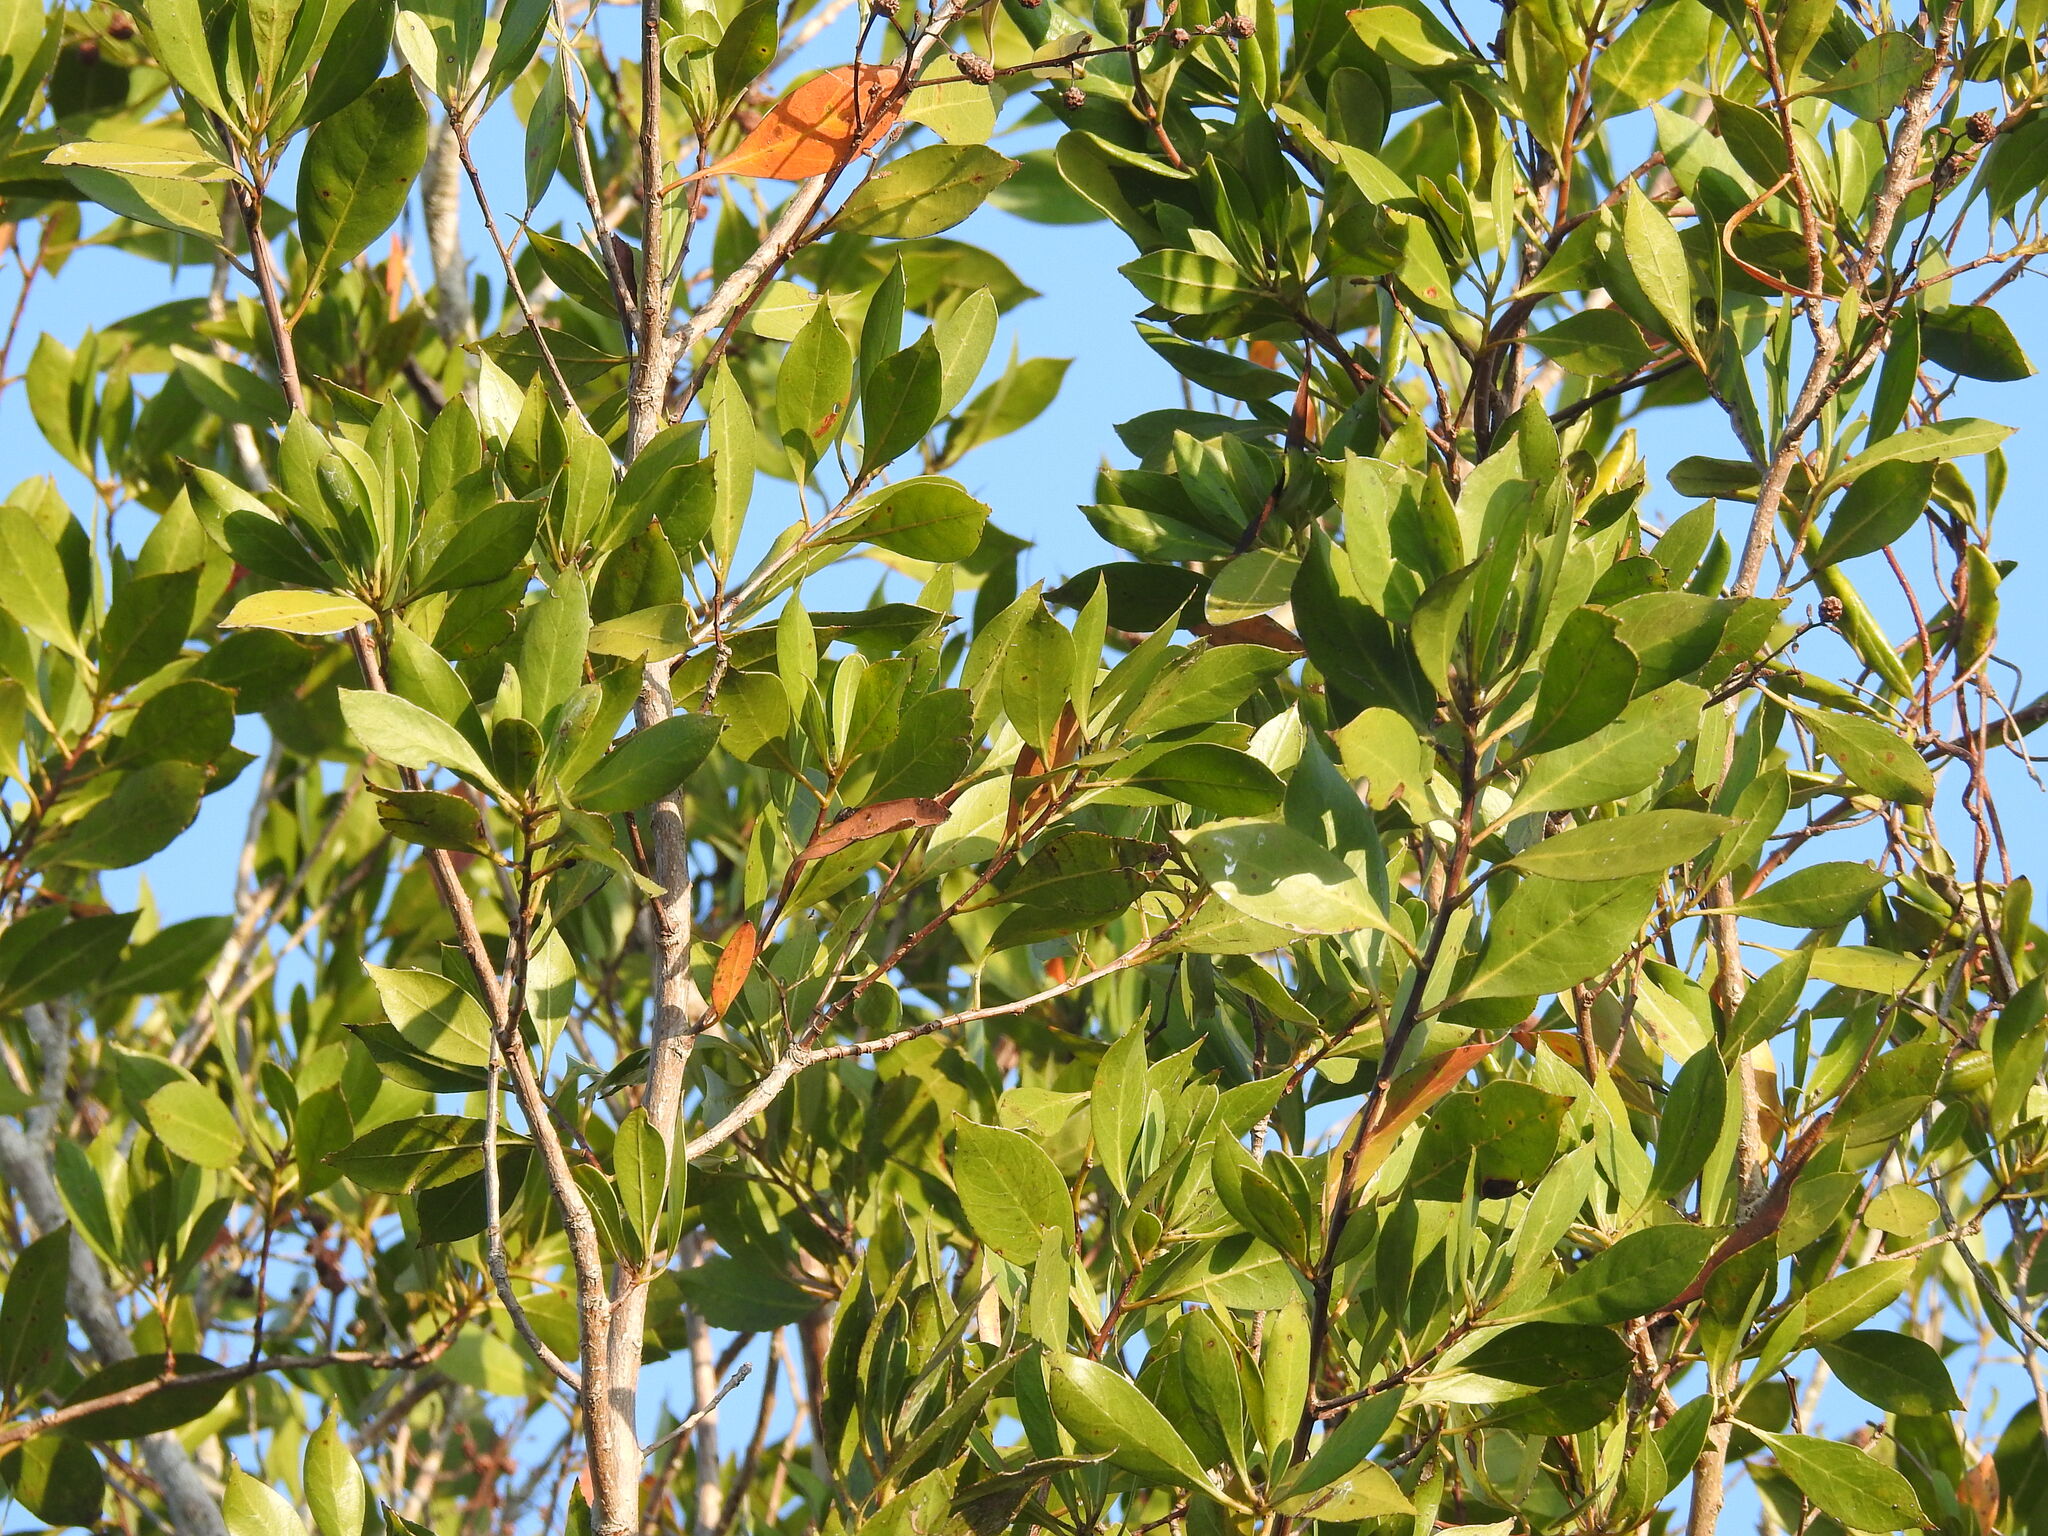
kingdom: Plantae
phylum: Tracheophyta
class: Magnoliopsida
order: Myrtales
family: Combretaceae
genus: Conocarpus
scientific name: Conocarpus erectus
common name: Button mangrove
